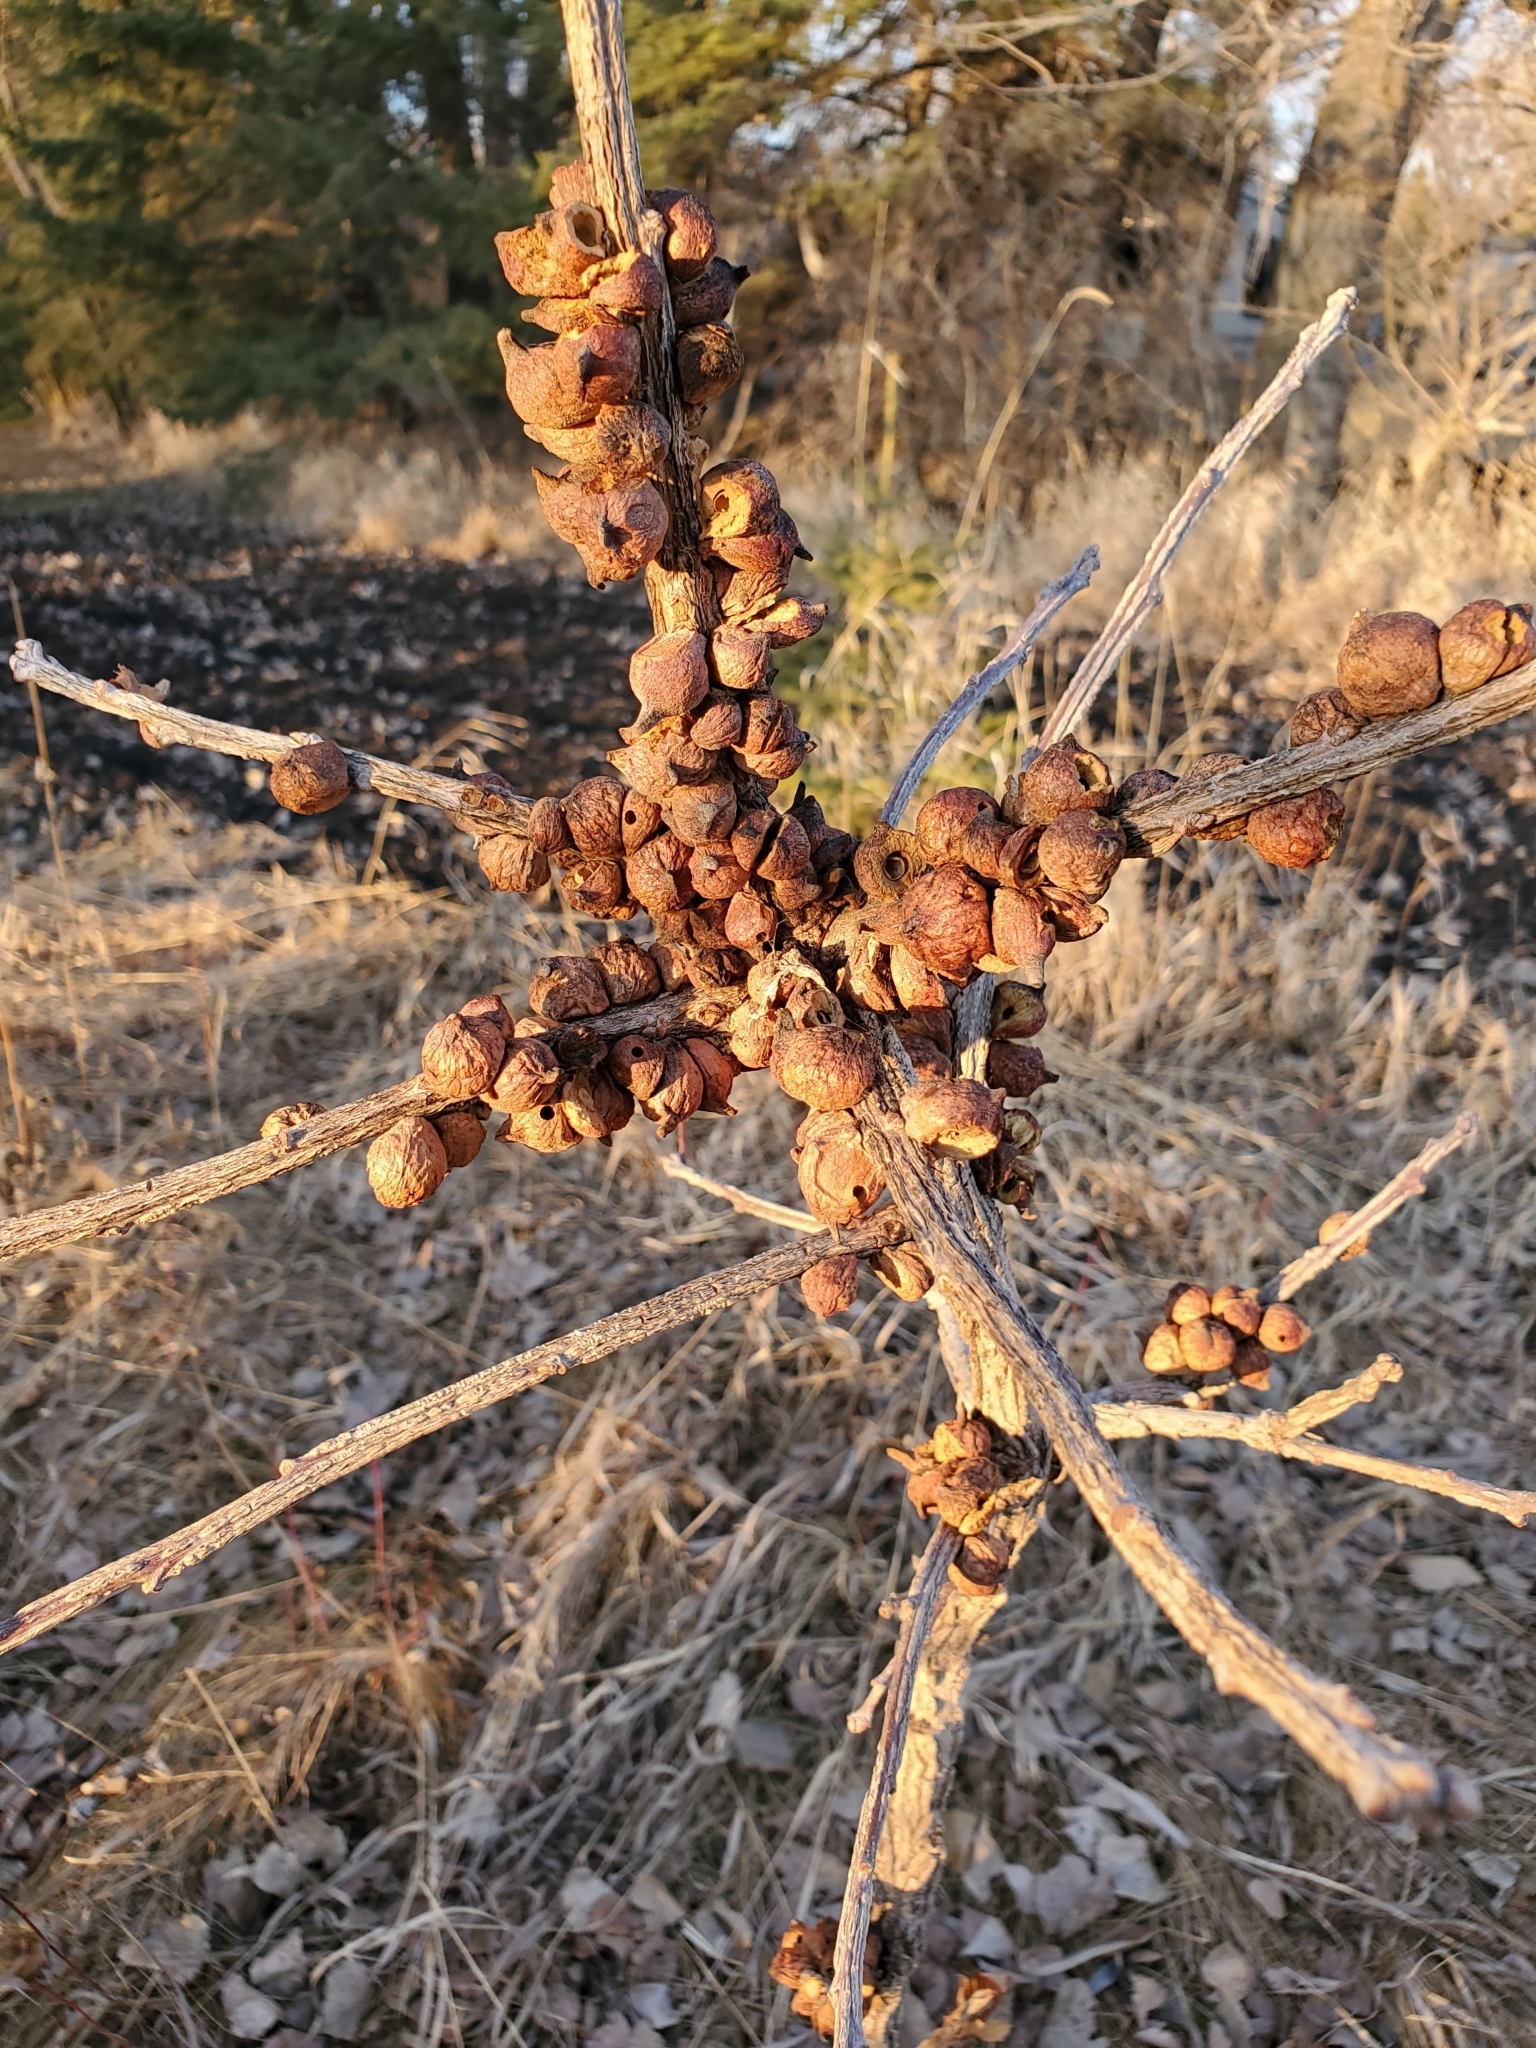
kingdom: Animalia
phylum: Arthropoda
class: Insecta
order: Hymenoptera
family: Cynipidae
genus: Disholcaspis
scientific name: Disholcaspis
